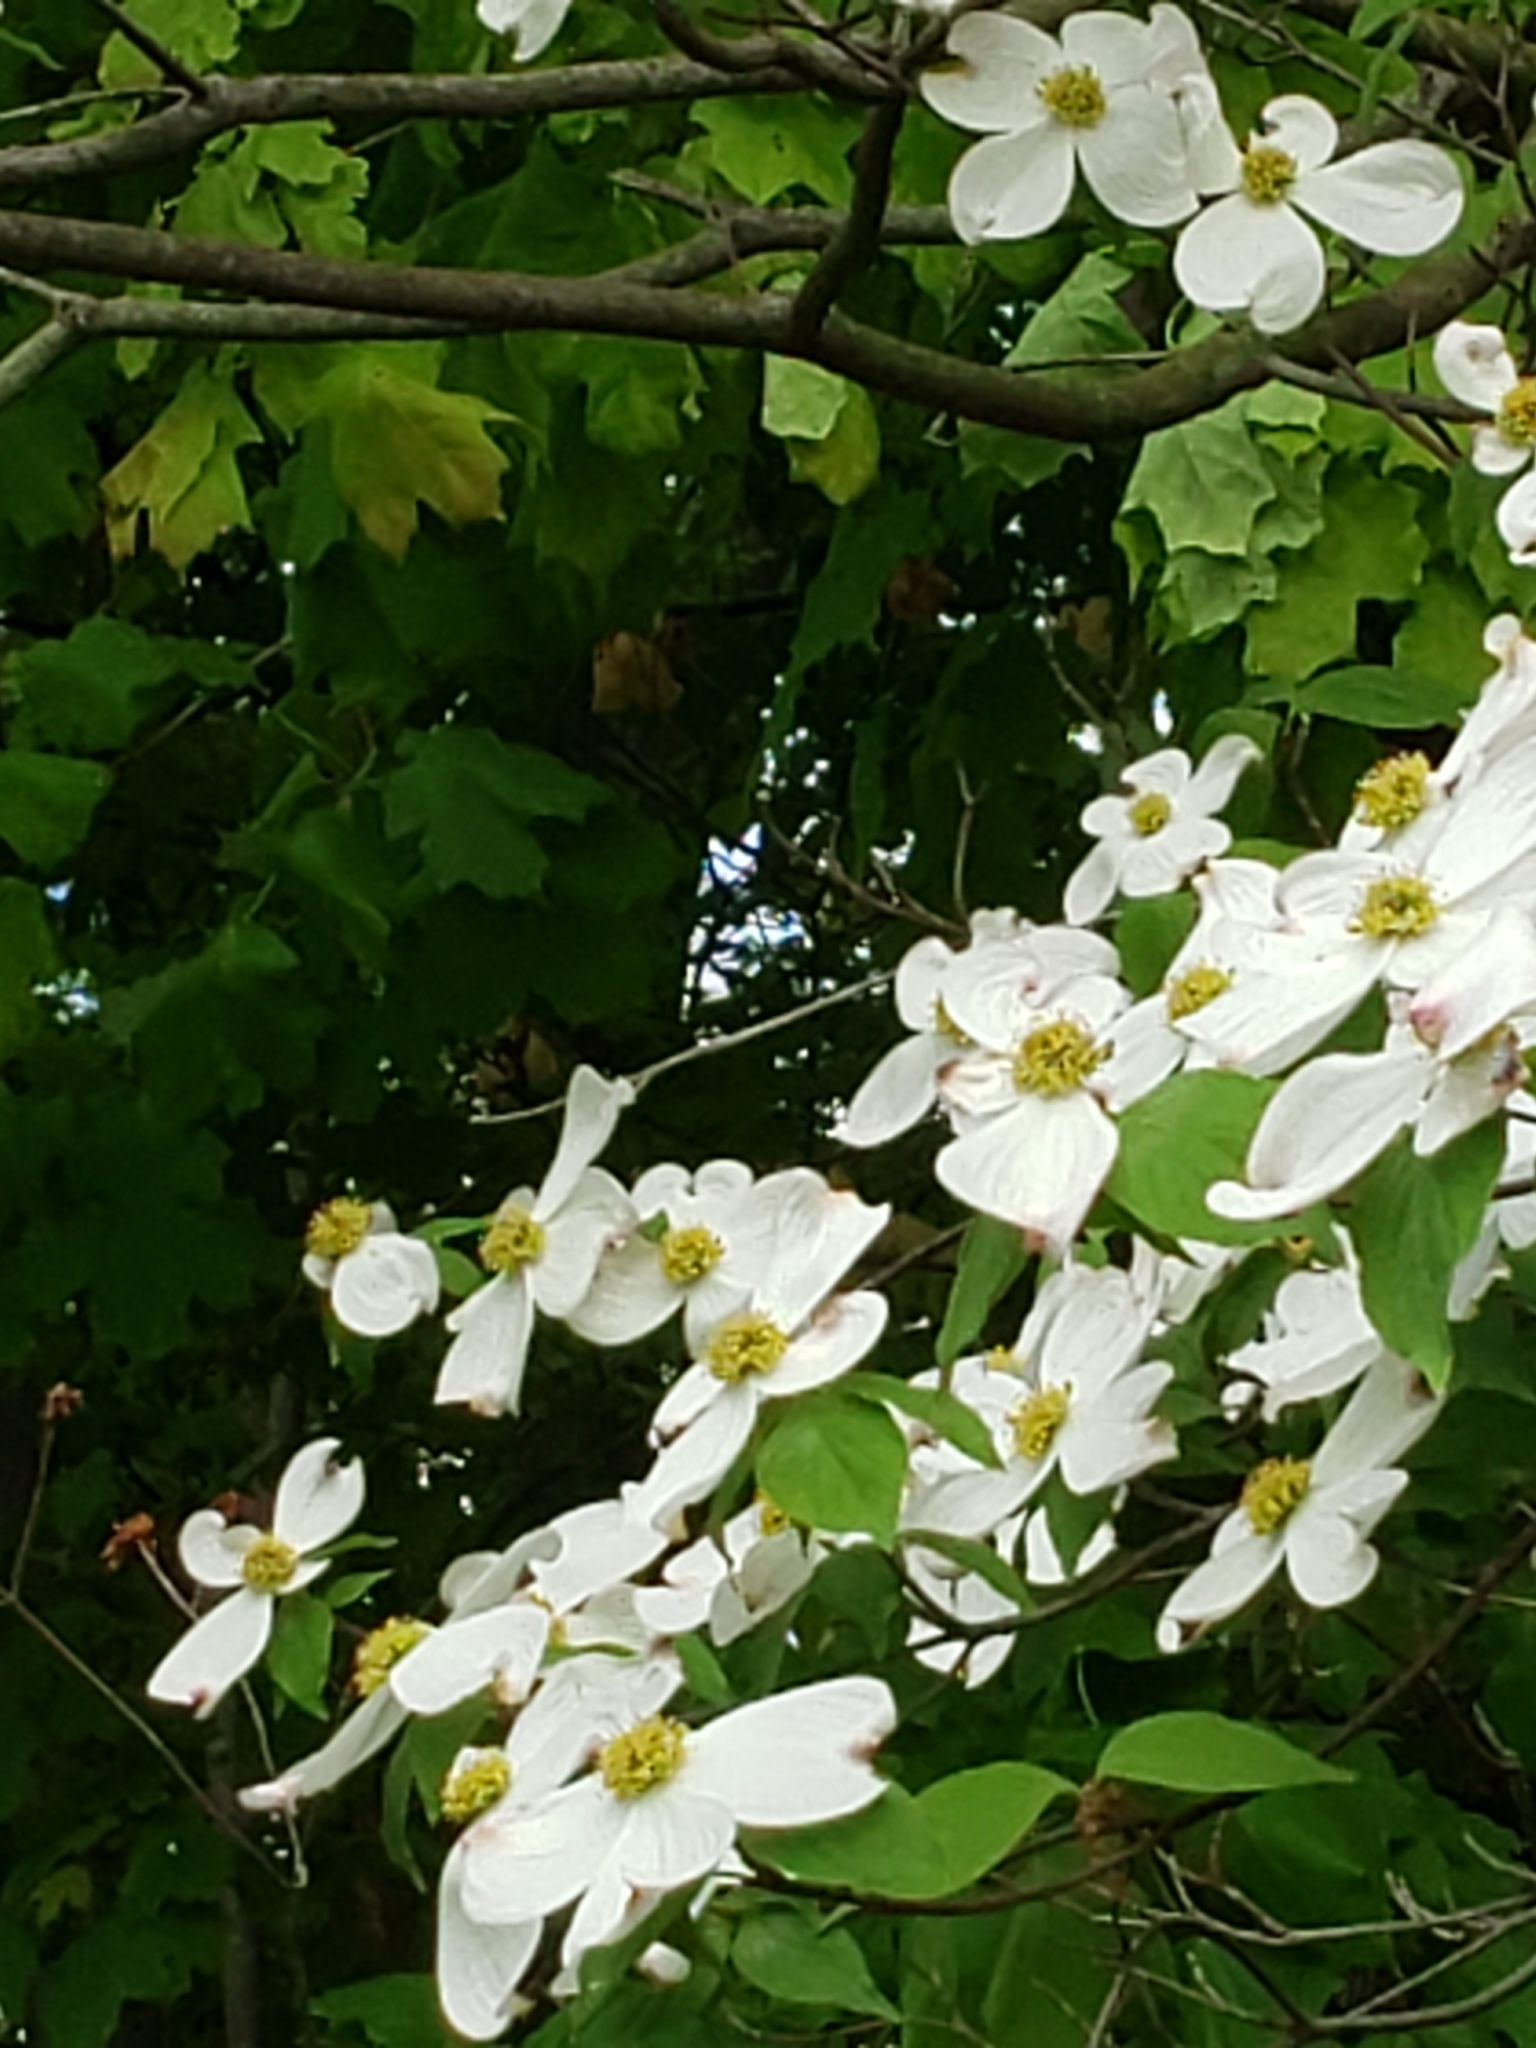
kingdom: Plantae
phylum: Tracheophyta
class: Magnoliopsida
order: Cornales
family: Cornaceae
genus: Cornus
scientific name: Cornus florida
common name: Flowering dogwood
